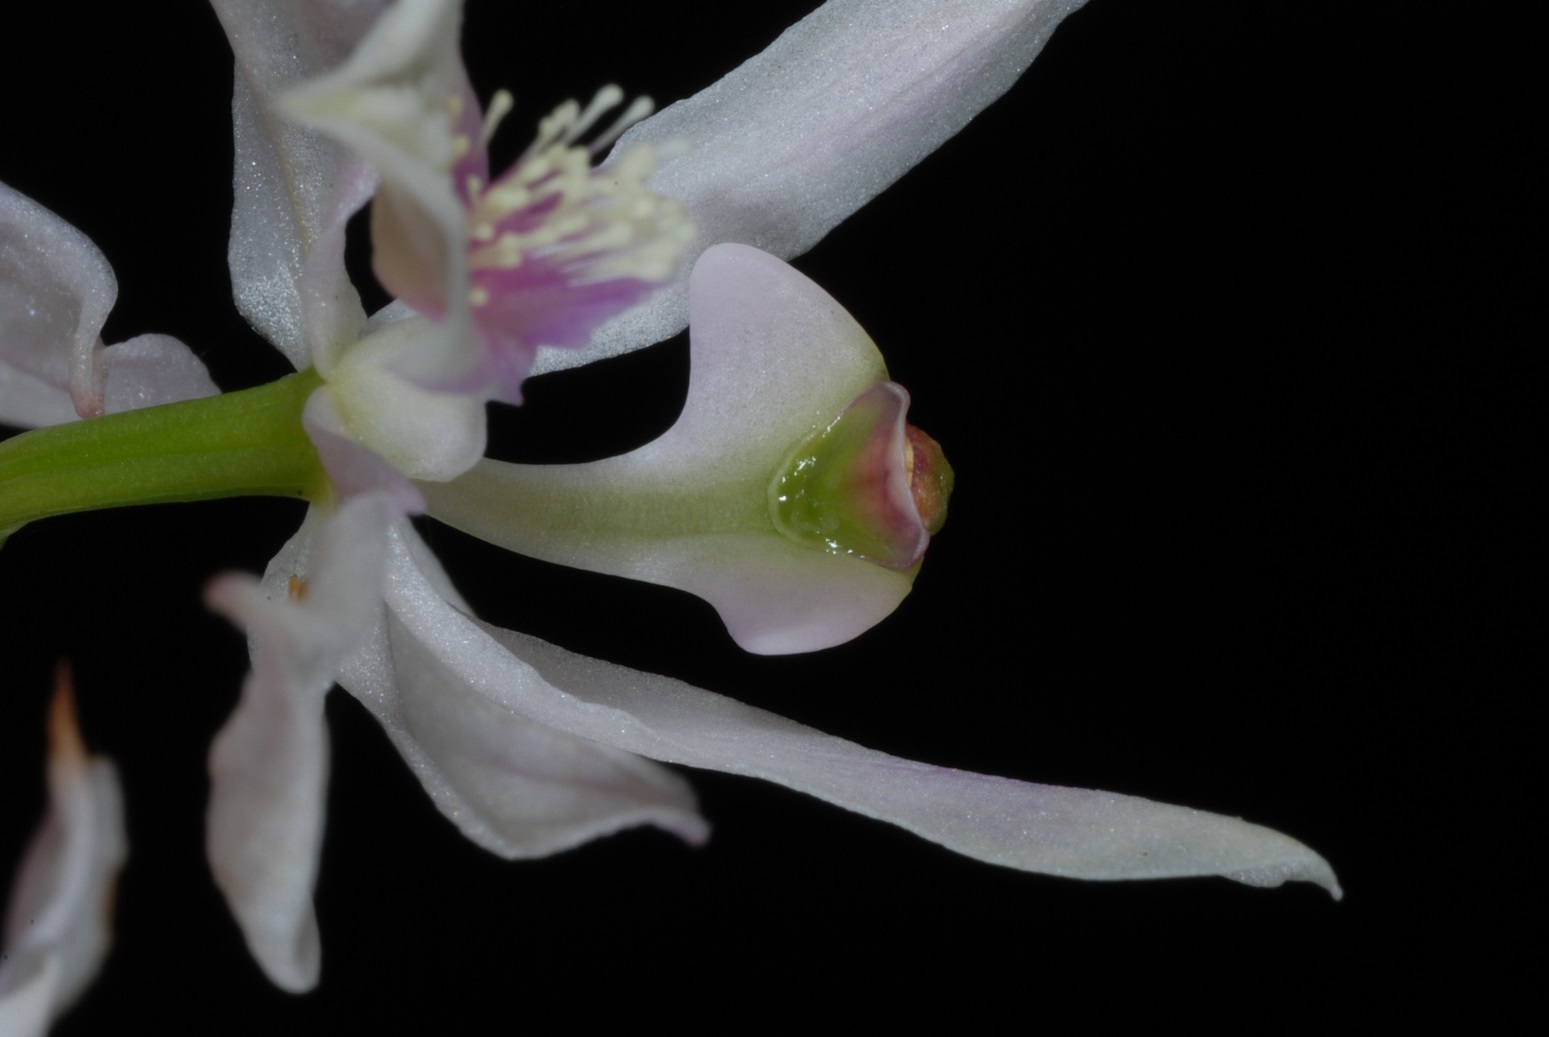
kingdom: Plantae
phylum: Tracheophyta
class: Liliopsida
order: Asparagales
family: Orchidaceae
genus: Calopogon
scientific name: Calopogon pallidus
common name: Pale grasspink
